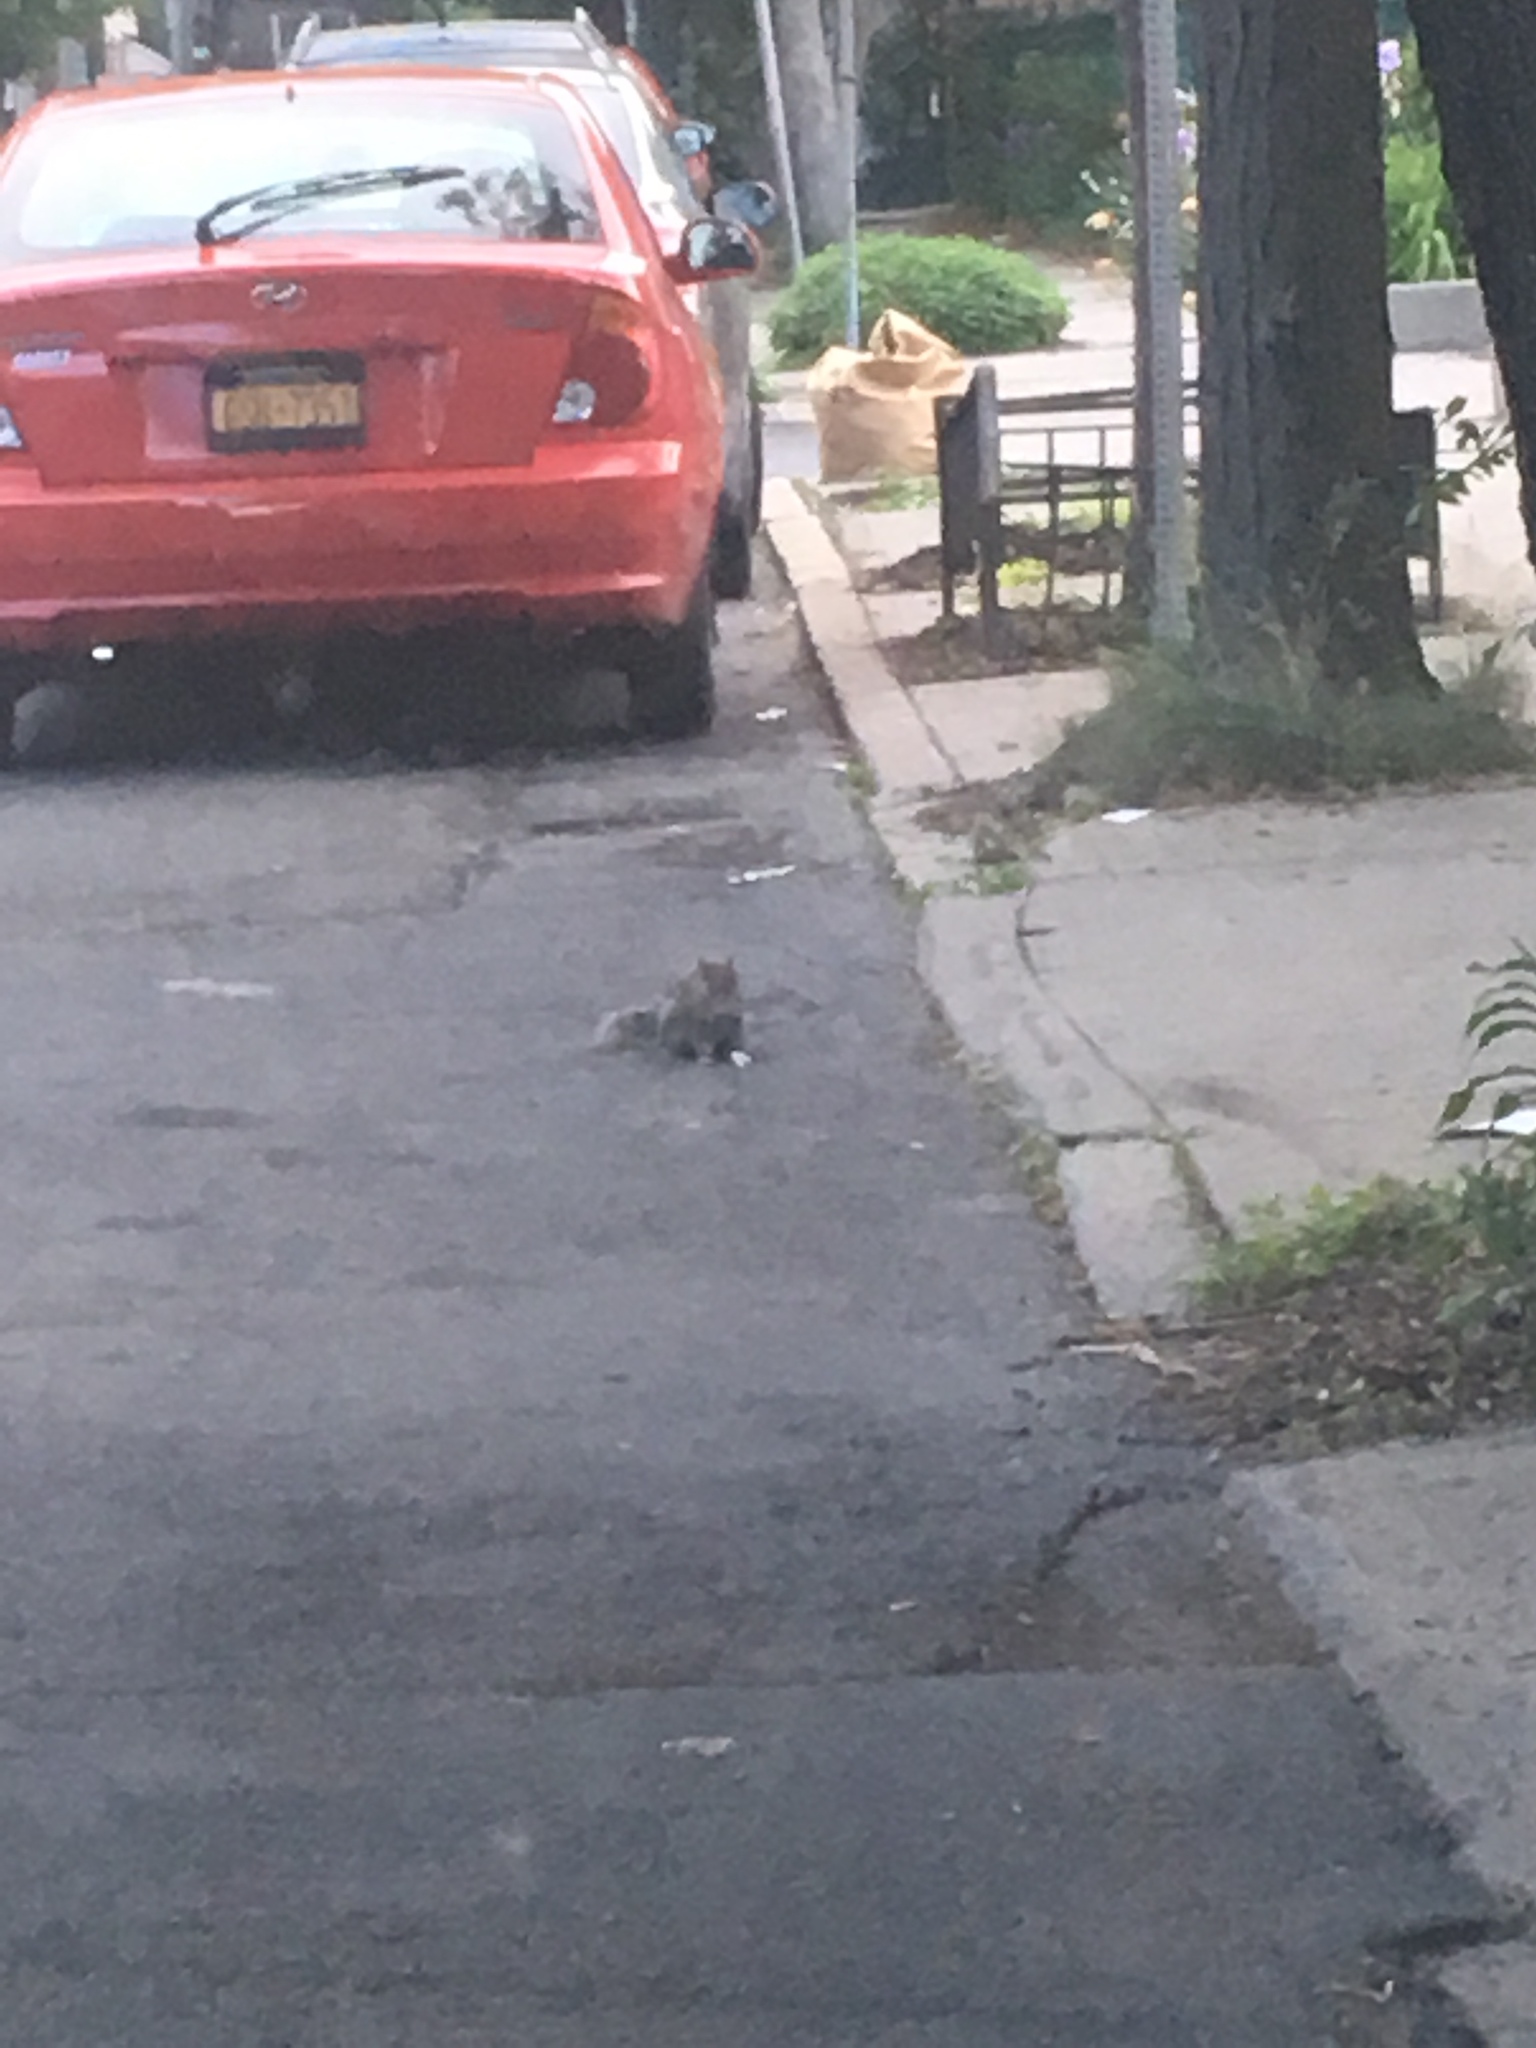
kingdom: Animalia
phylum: Chordata
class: Mammalia
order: Rodentia
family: Sciuridae
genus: Sciurus
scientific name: Sciurus carolinensis
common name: Eastern gray squirrel
